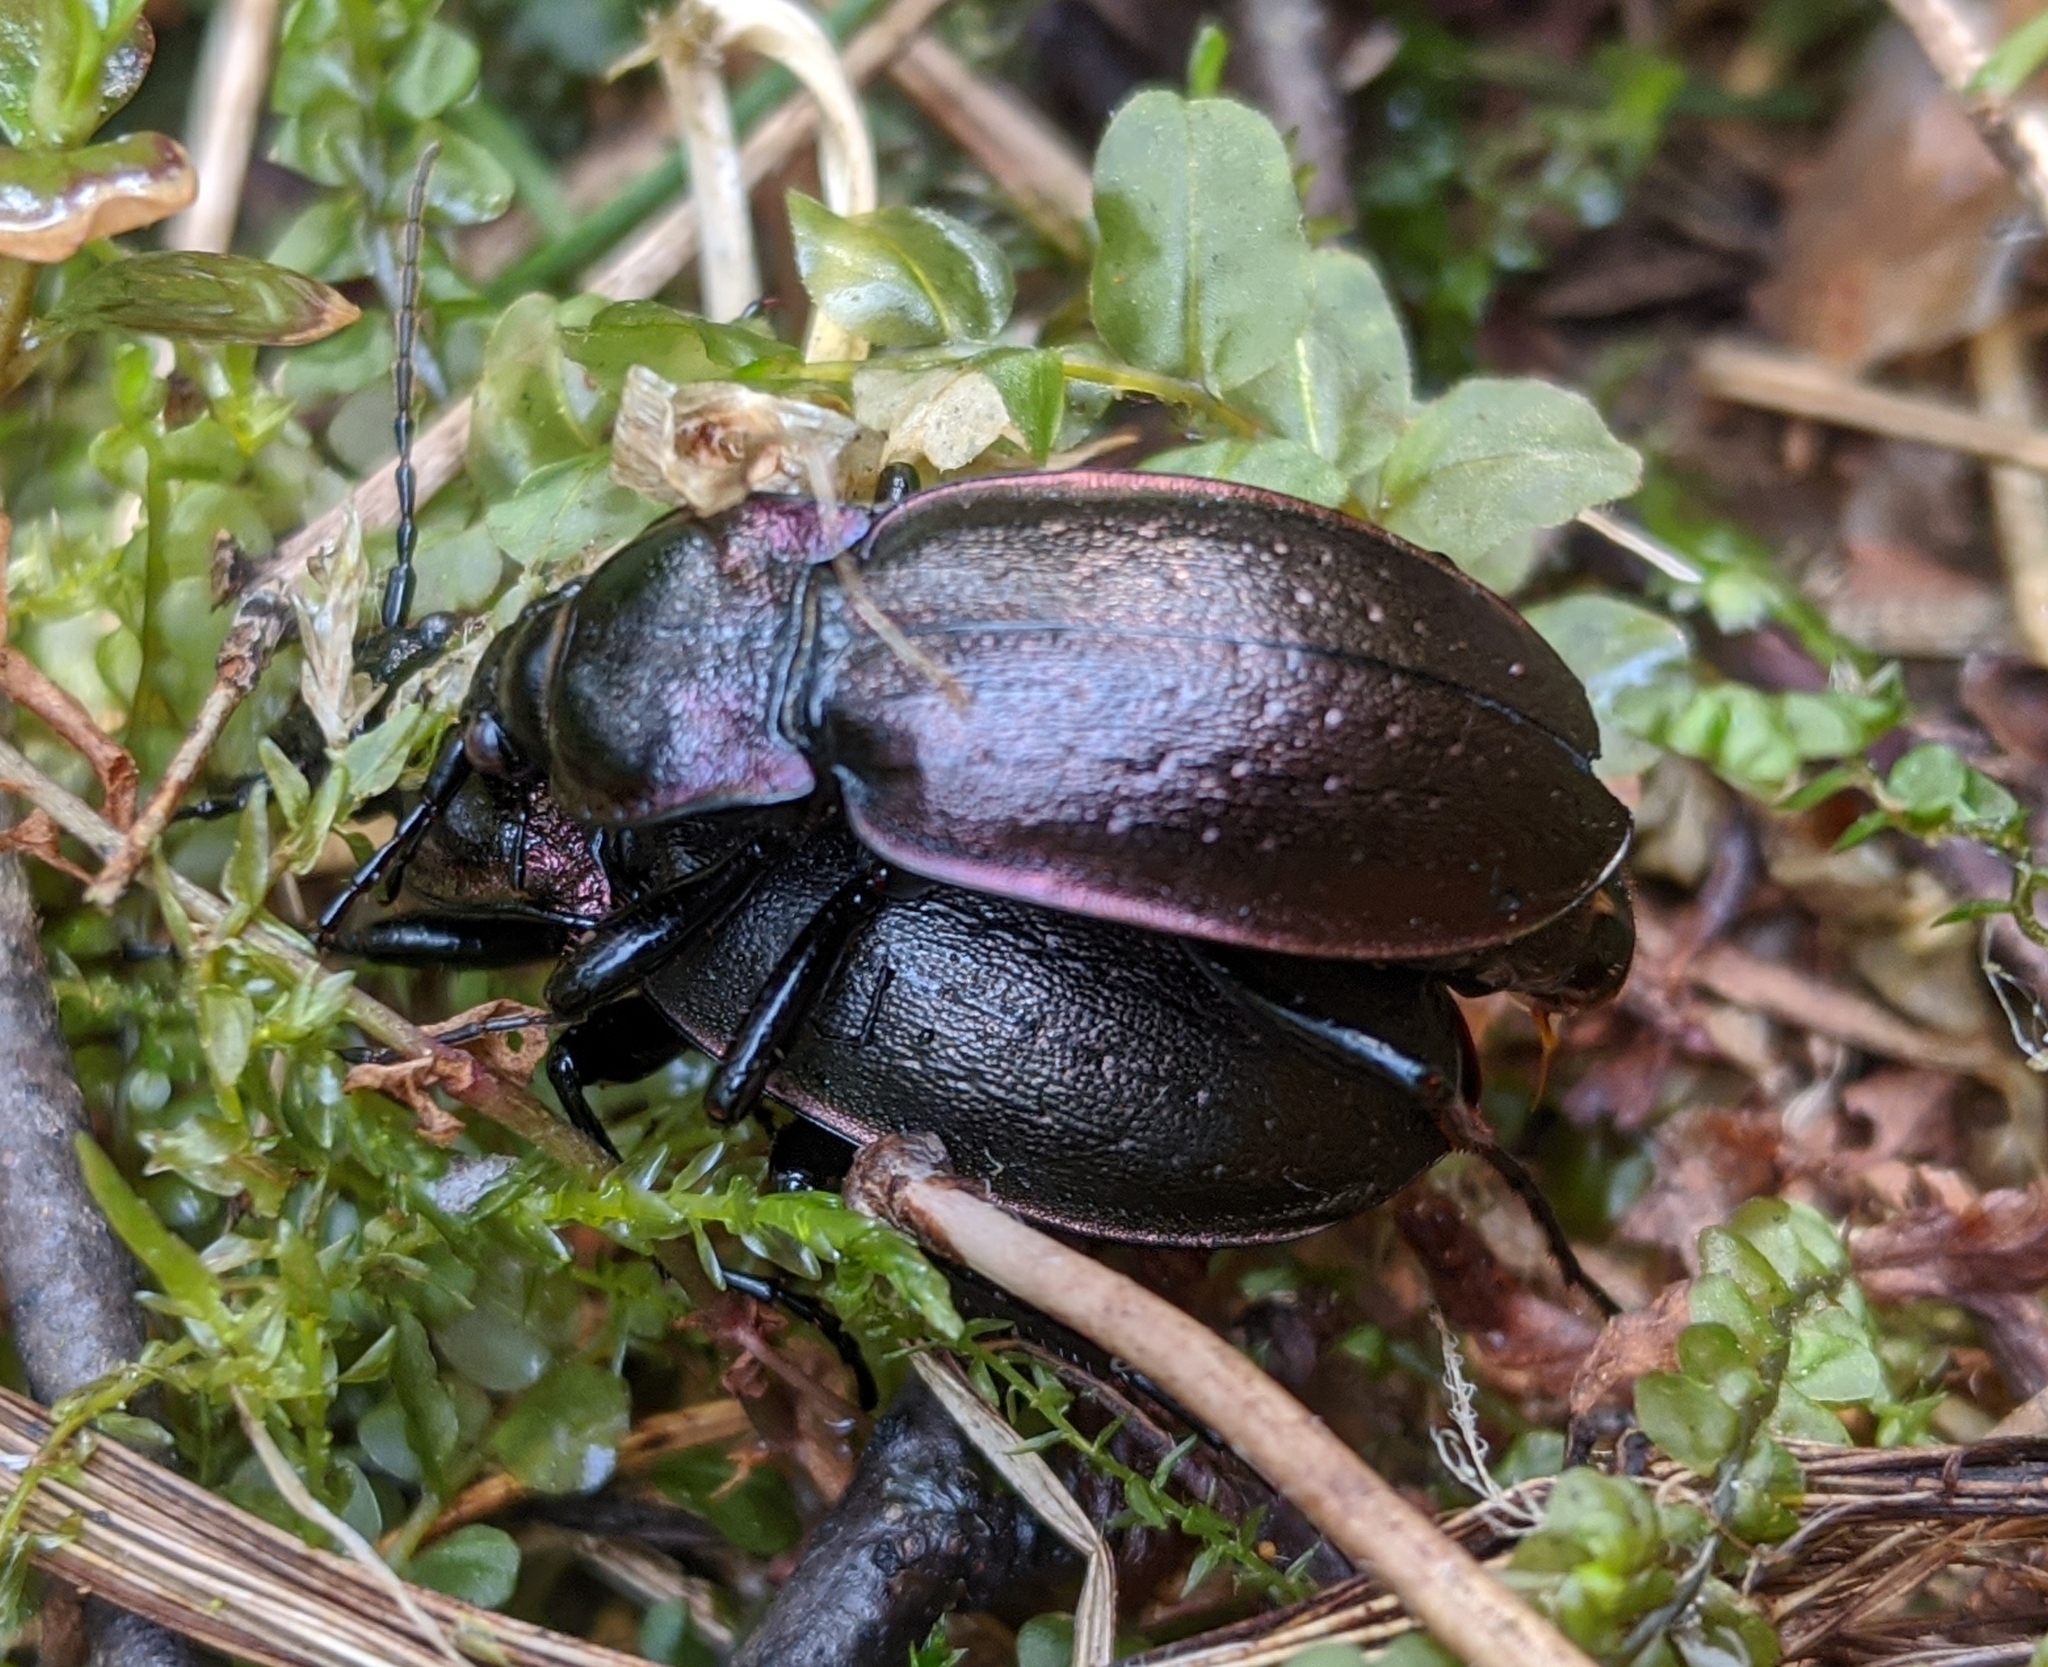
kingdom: Animalia
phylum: Arthropoda
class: Insecta
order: Coleoptera
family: Carabidae
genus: Carabus
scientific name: Carabus nemoralis
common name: European ground beetle
